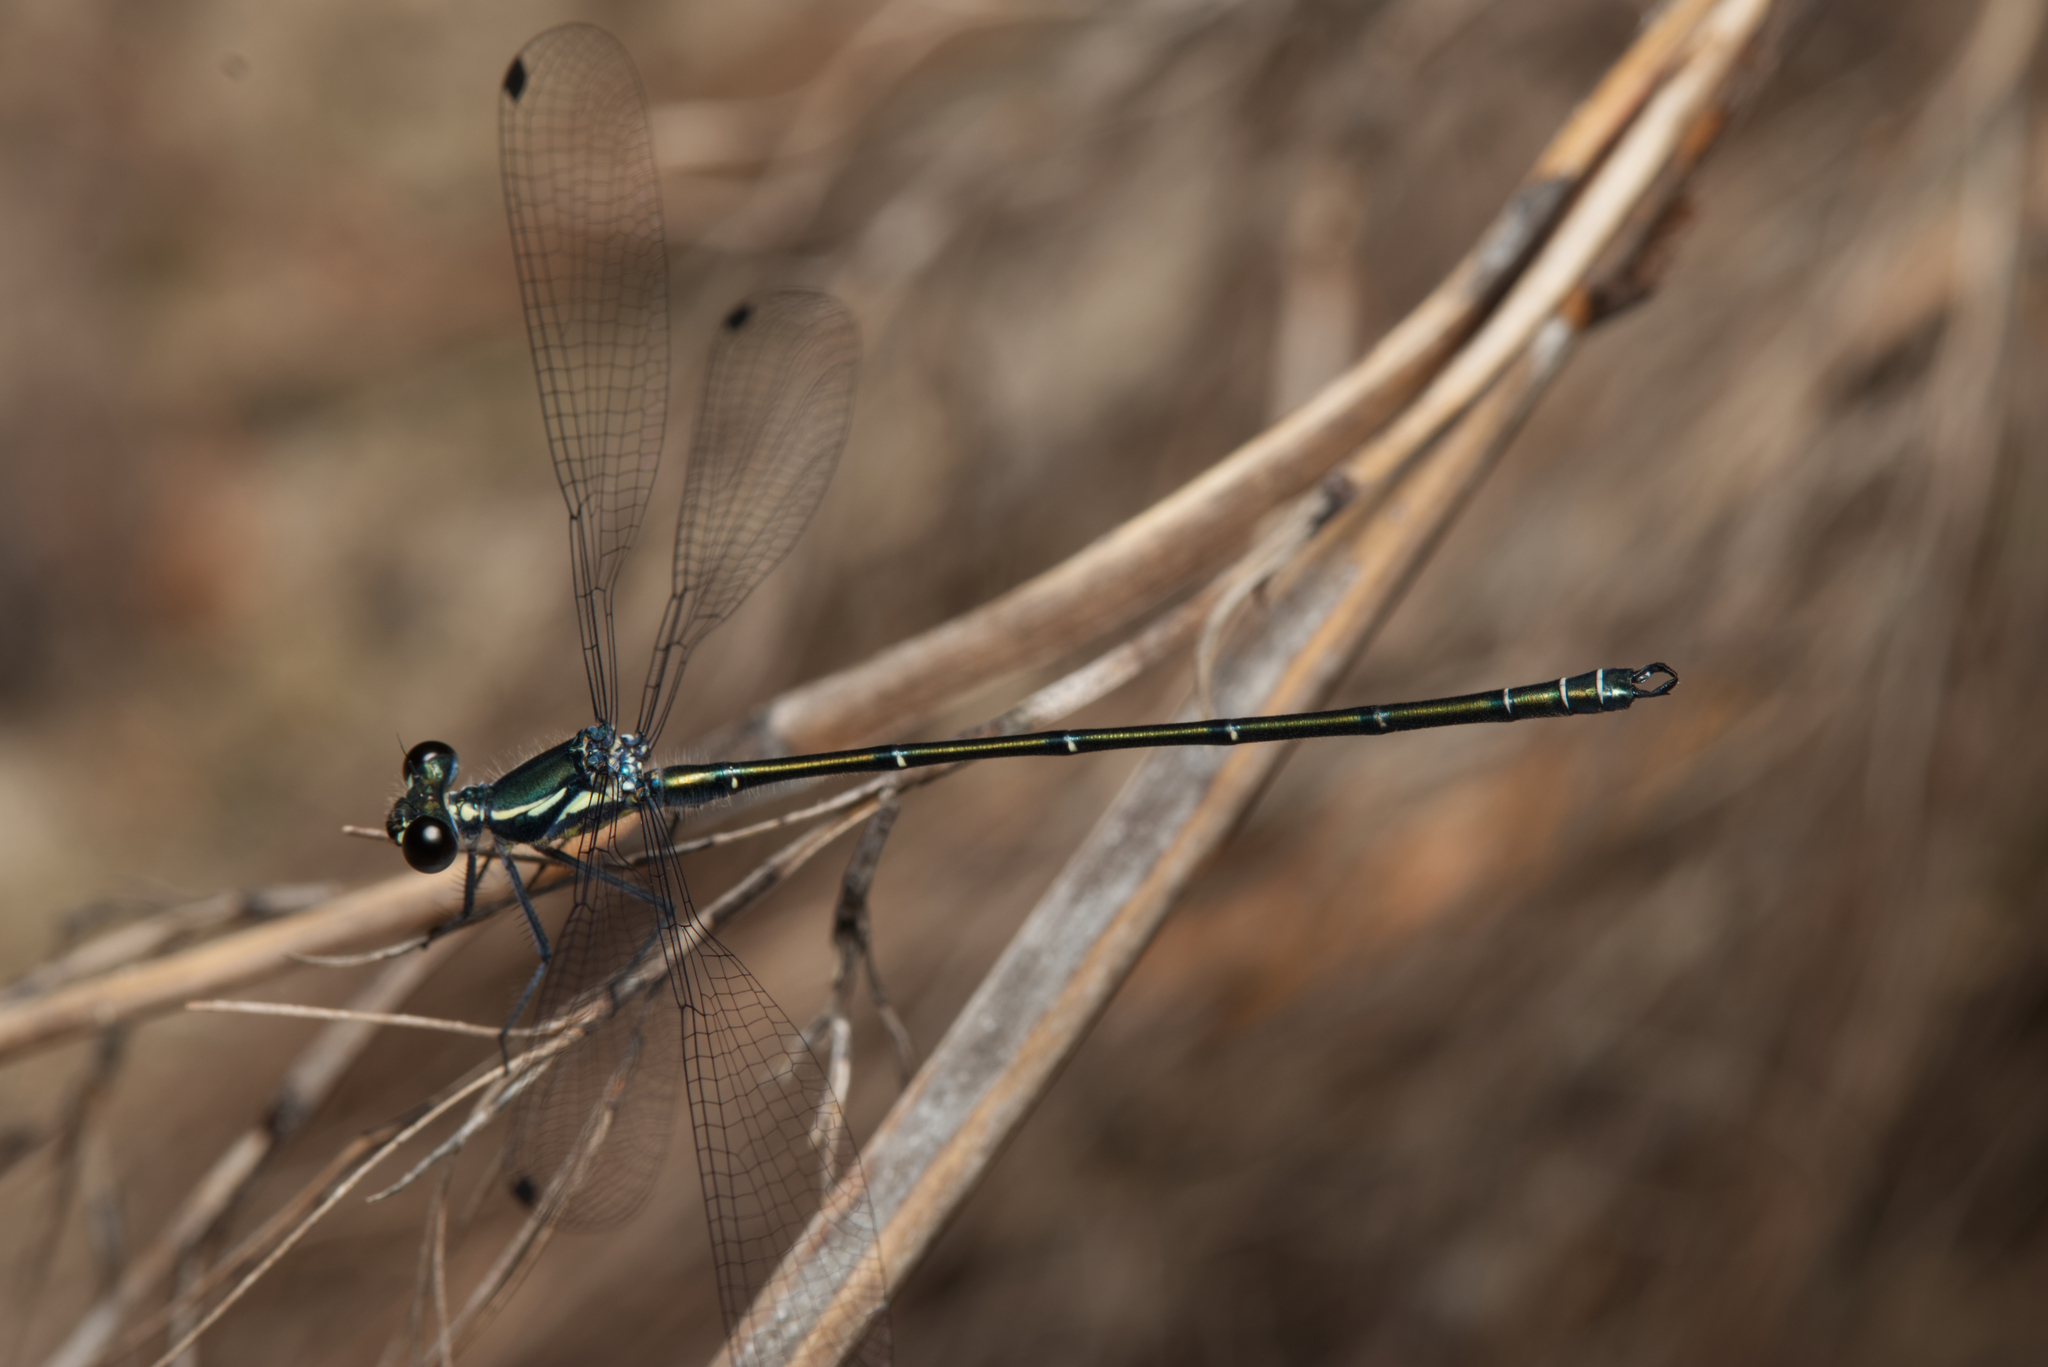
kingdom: Animalia
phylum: Arthropoda
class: Insecta
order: Odonata
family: Argiolestidae
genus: Austroargiolestes
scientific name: Austroargiolestes icteromelas
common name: Common flatwing
